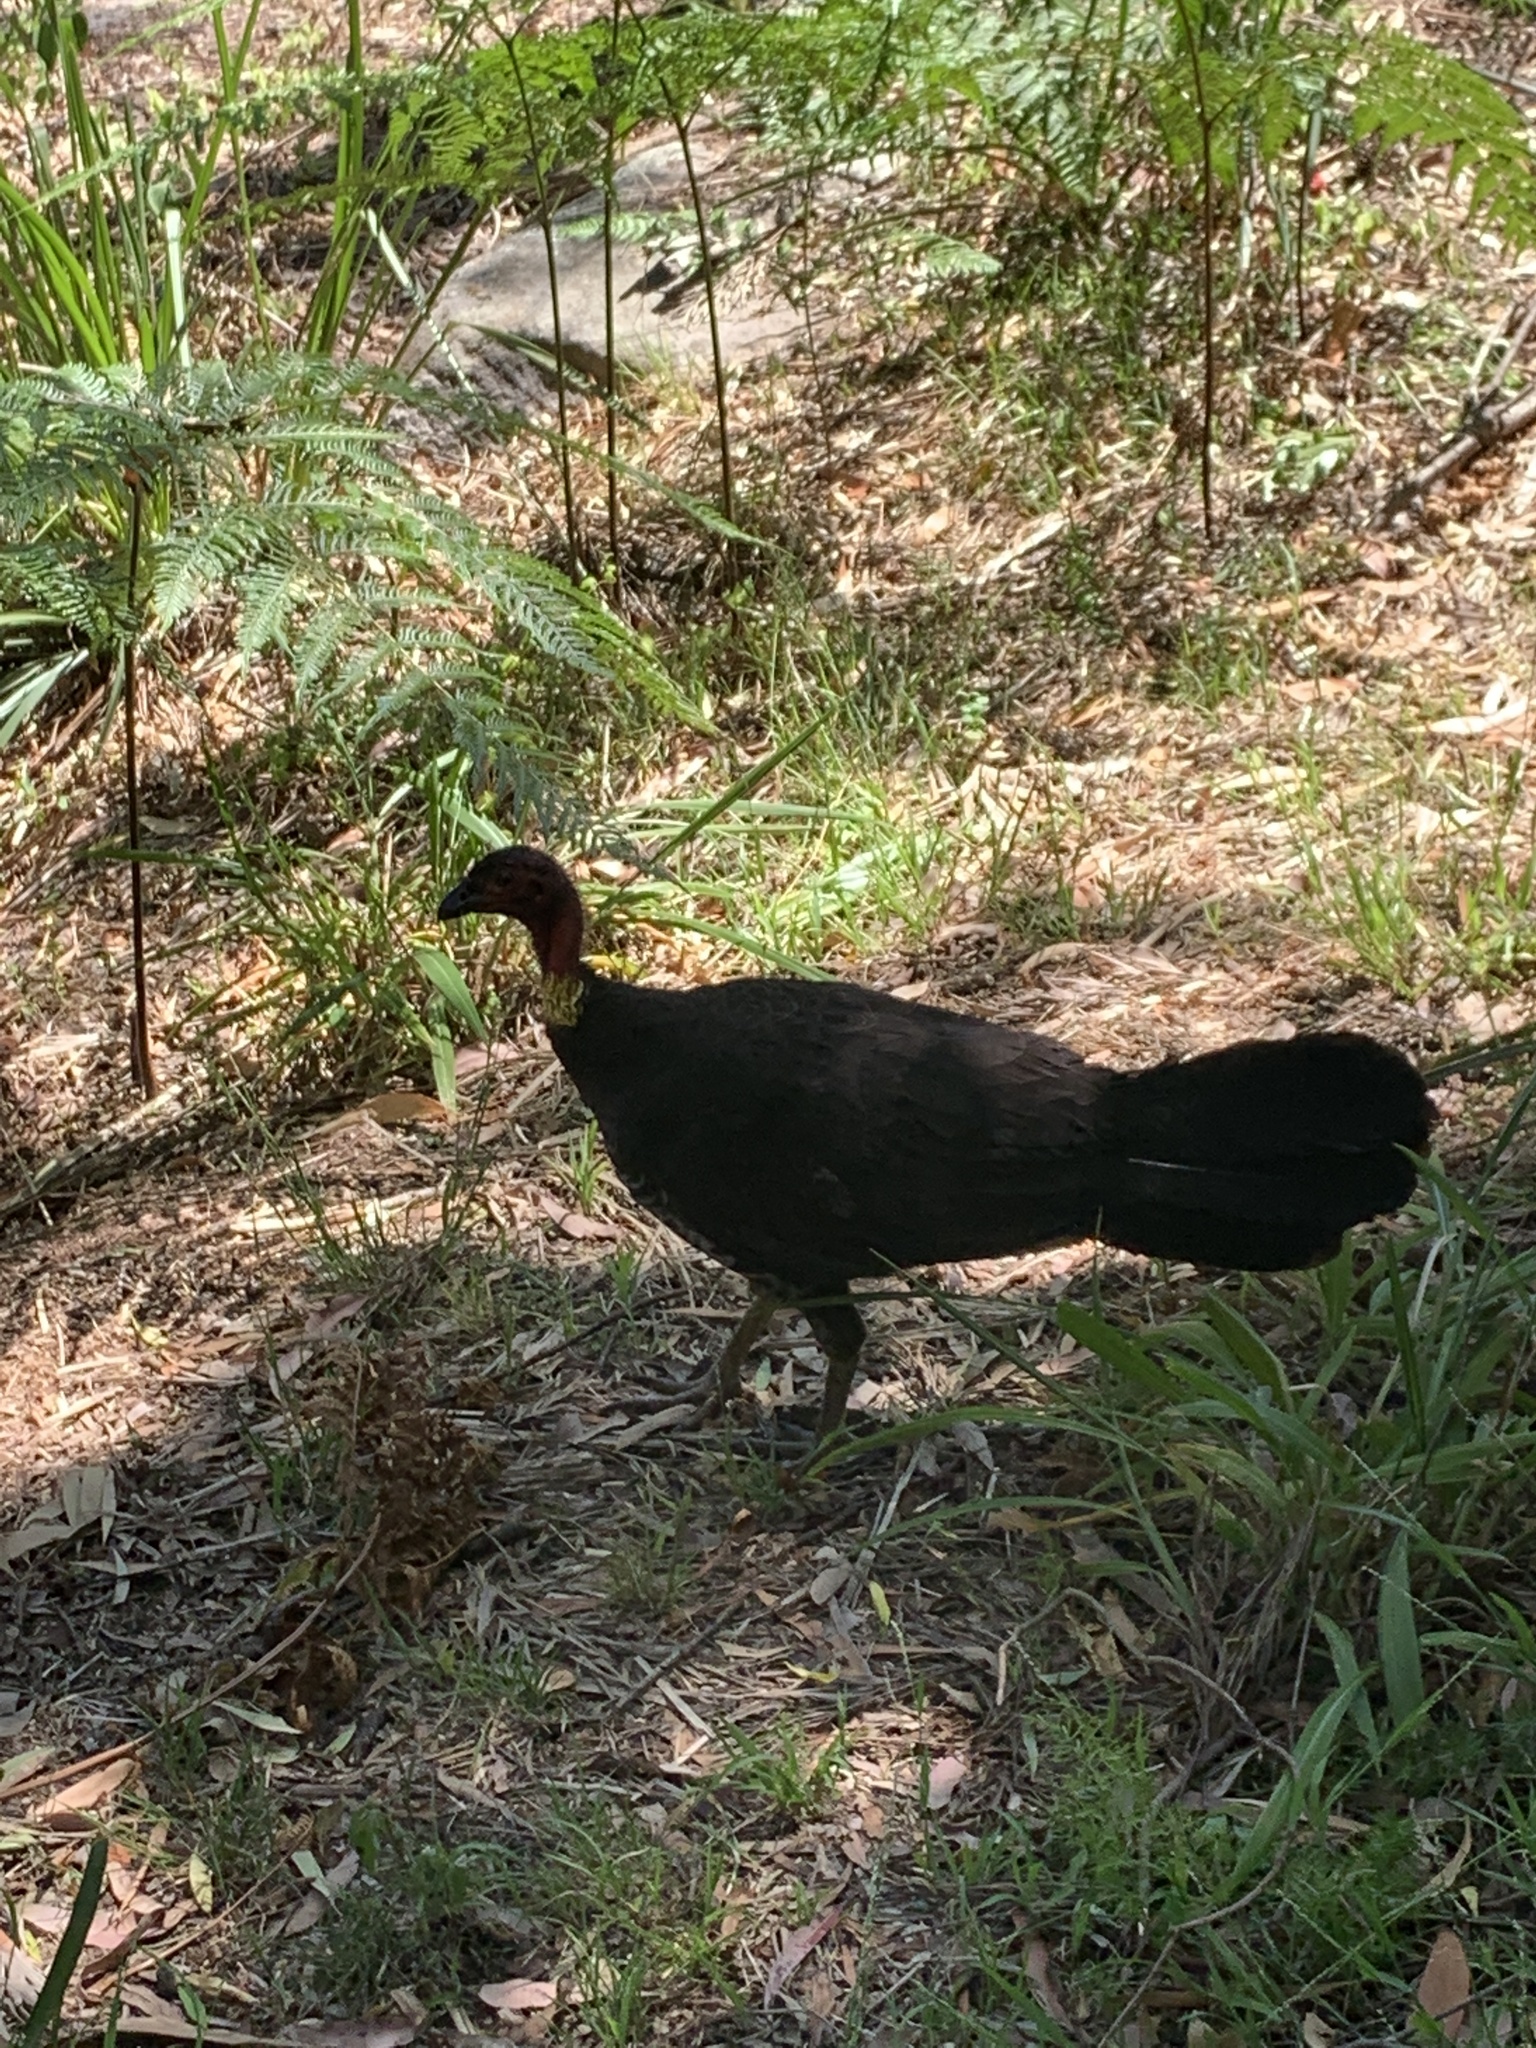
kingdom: Animalia
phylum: Chordata
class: Aves
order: Galliformes
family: Megapodiidae
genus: Alectura
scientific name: Alectura lathami
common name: Australian brushturkey
